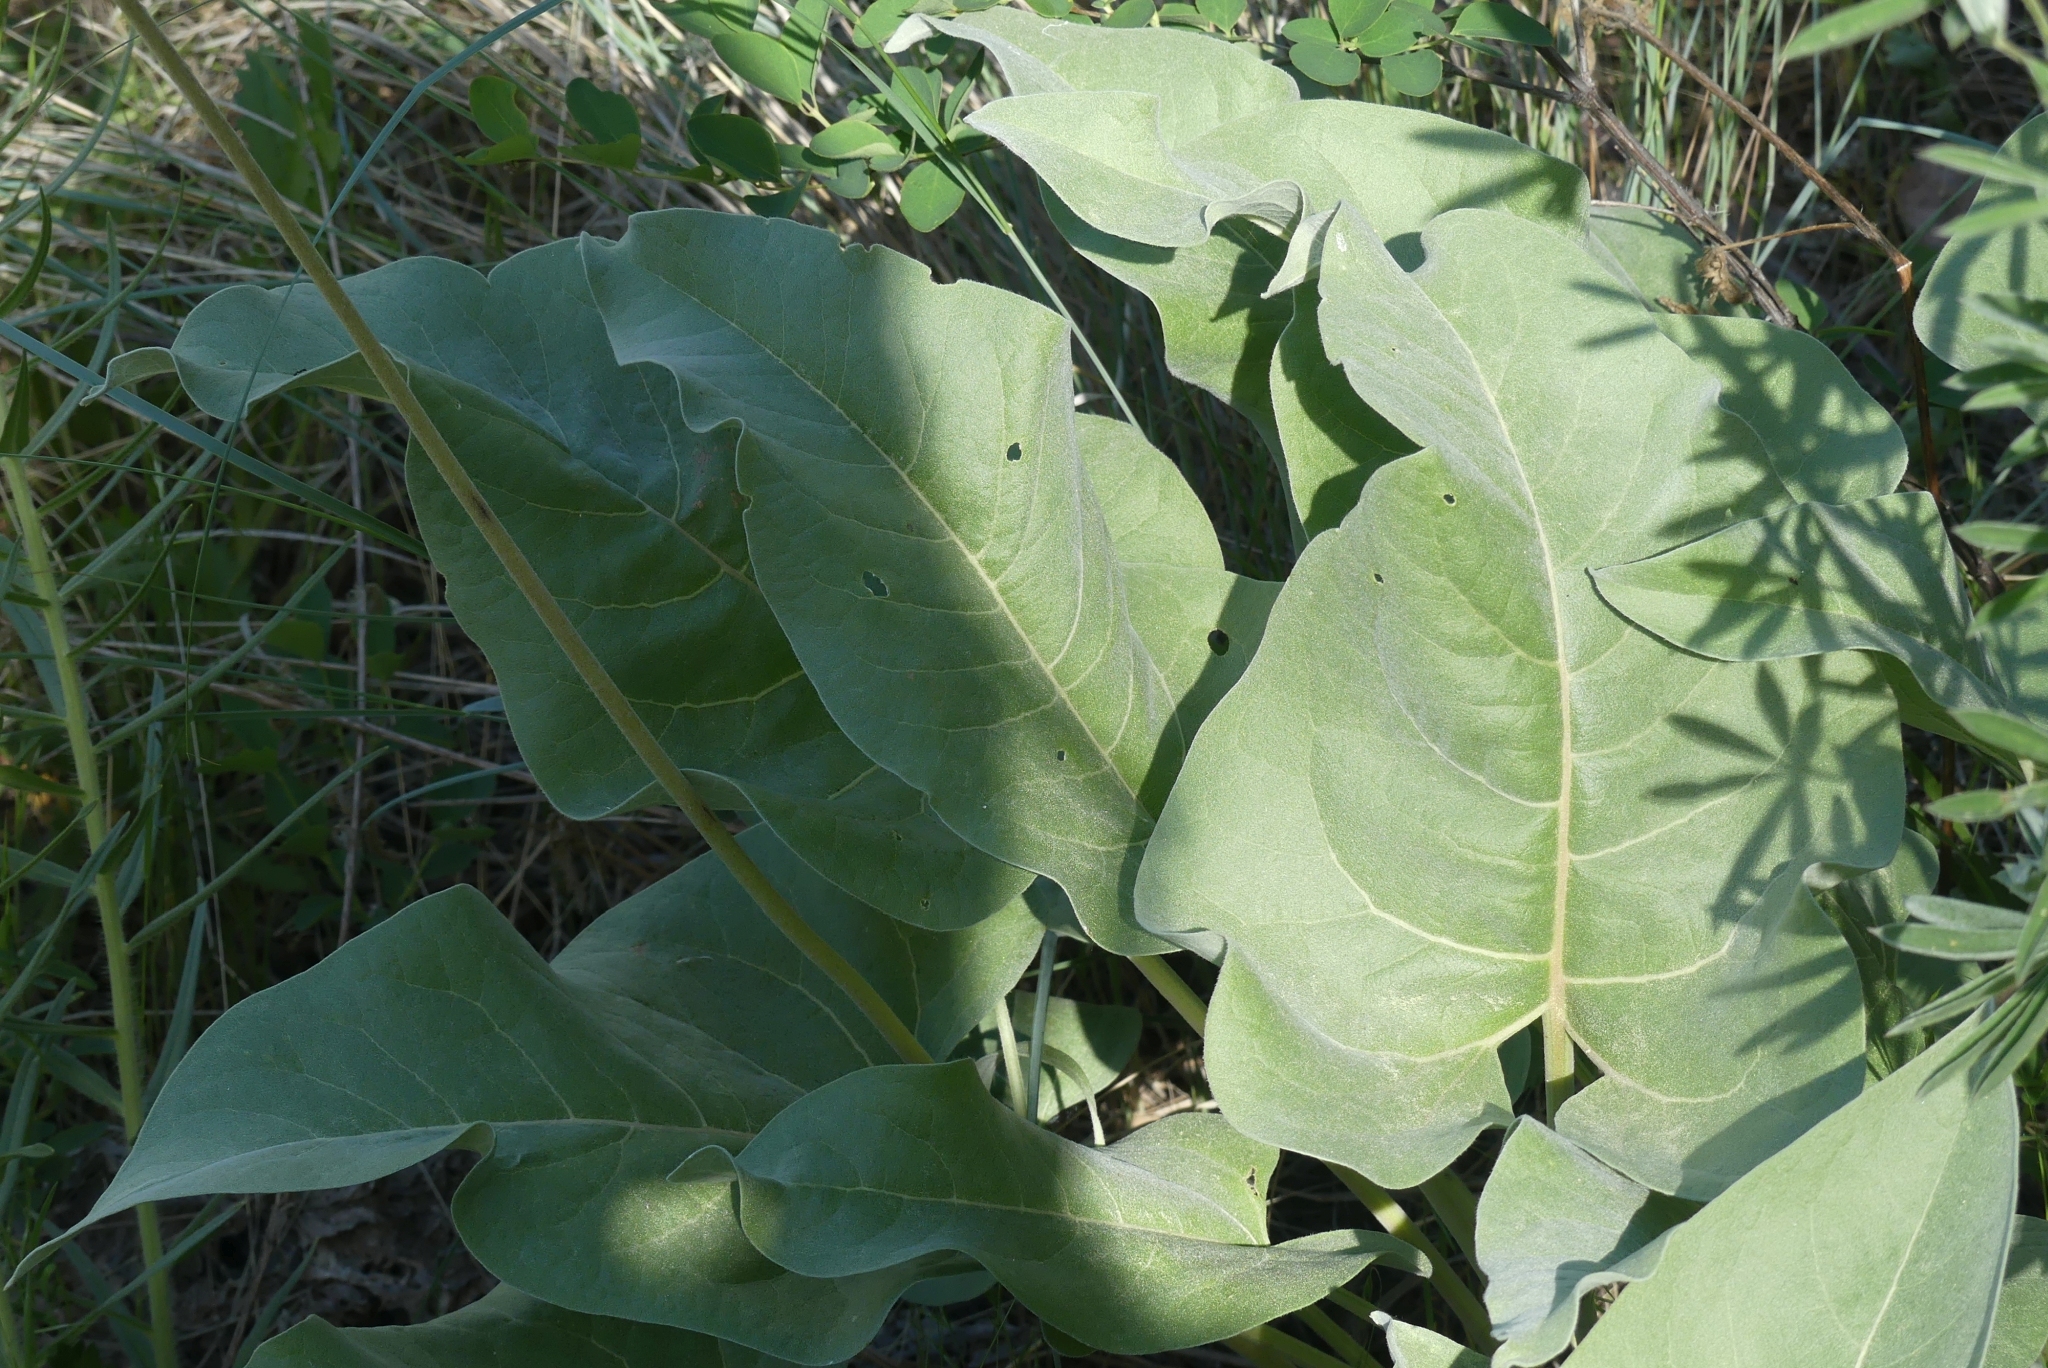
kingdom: Plantae
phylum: Tracheophyta
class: Magnoliopsida
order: Asterales
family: Asteraceae
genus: Wyethia
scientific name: Wyethia sagittata
